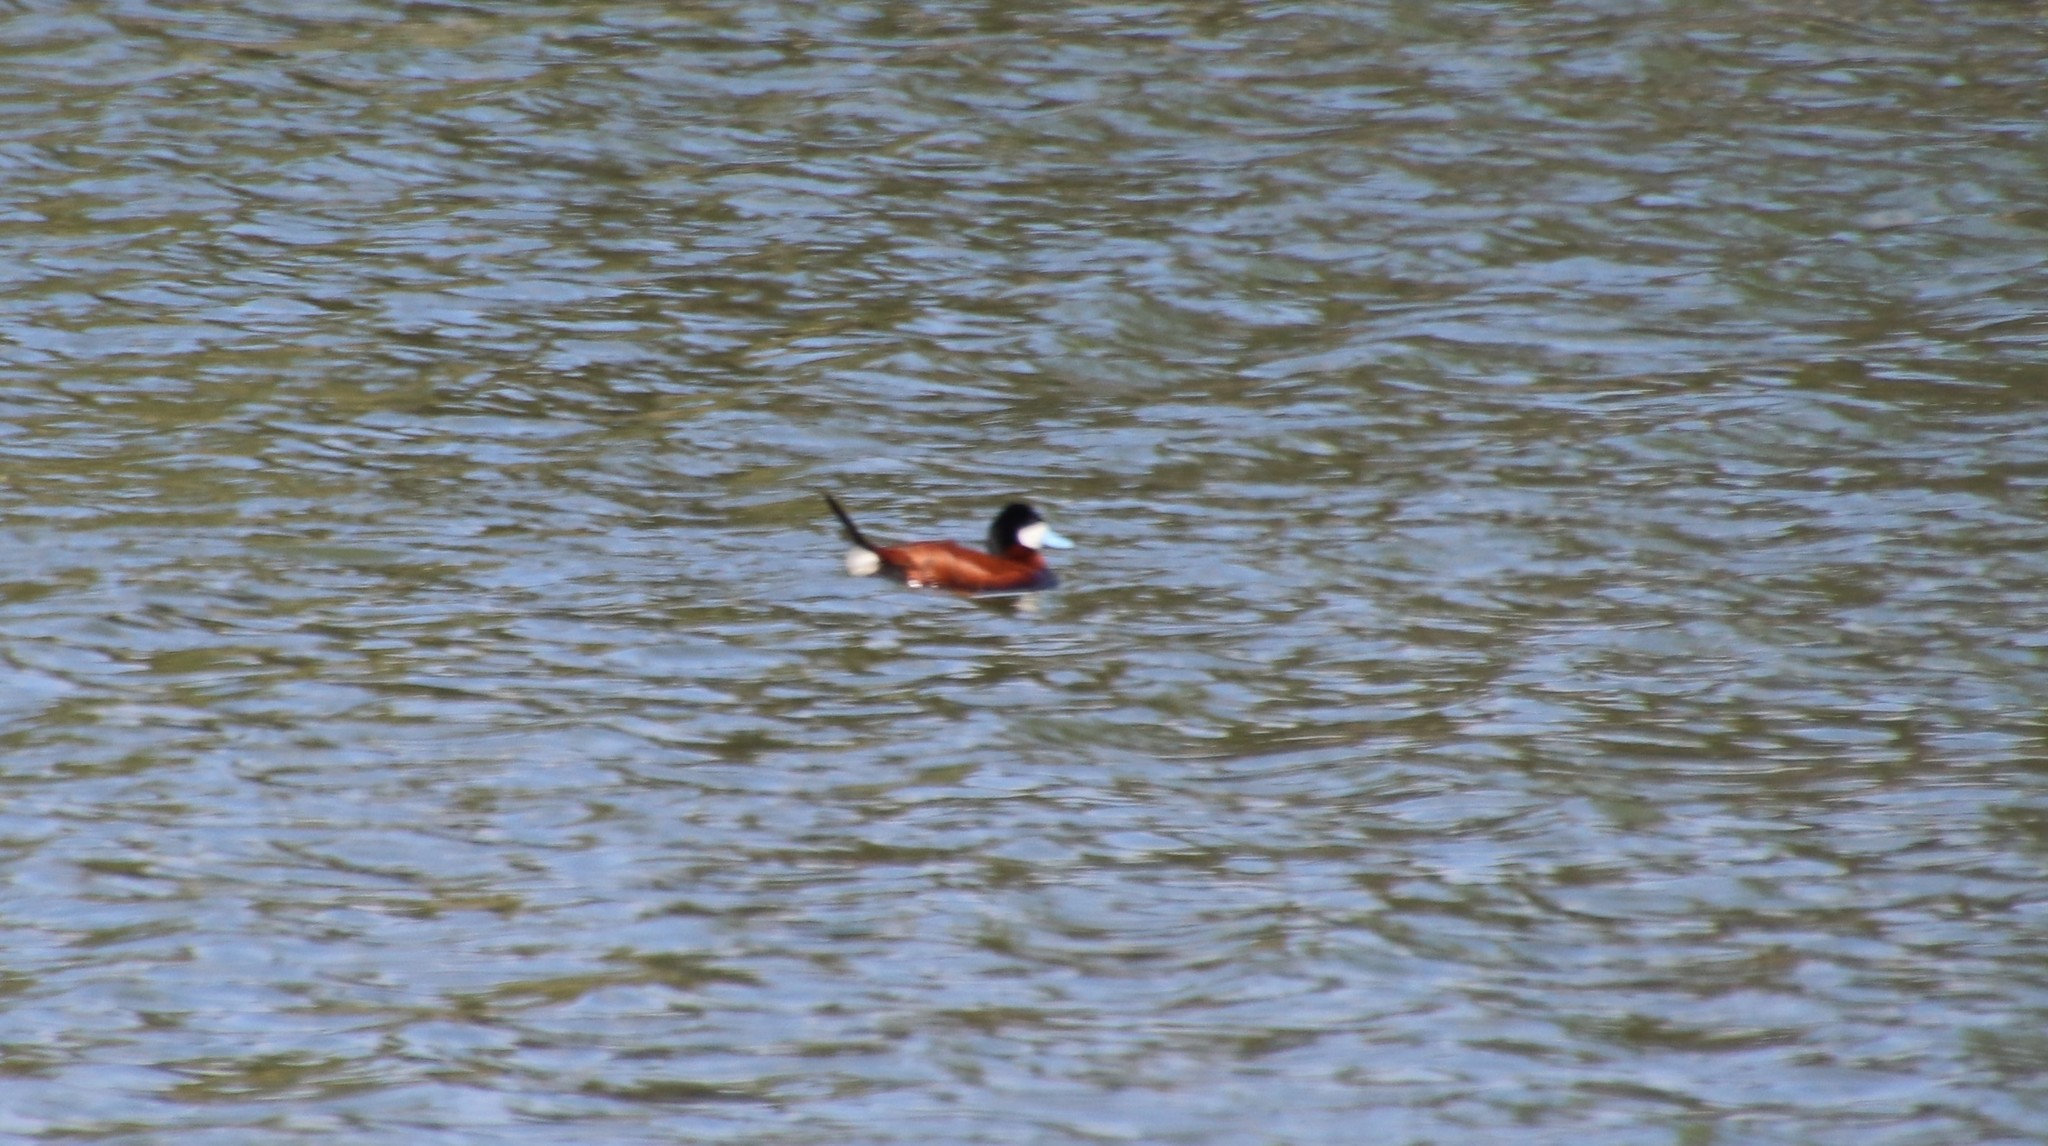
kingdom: Animalia
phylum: Chordata
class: Aves
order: Anseriformes
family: Anatidae
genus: Oxyura
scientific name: Oxyura jamaicensis
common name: Ruddy duck
